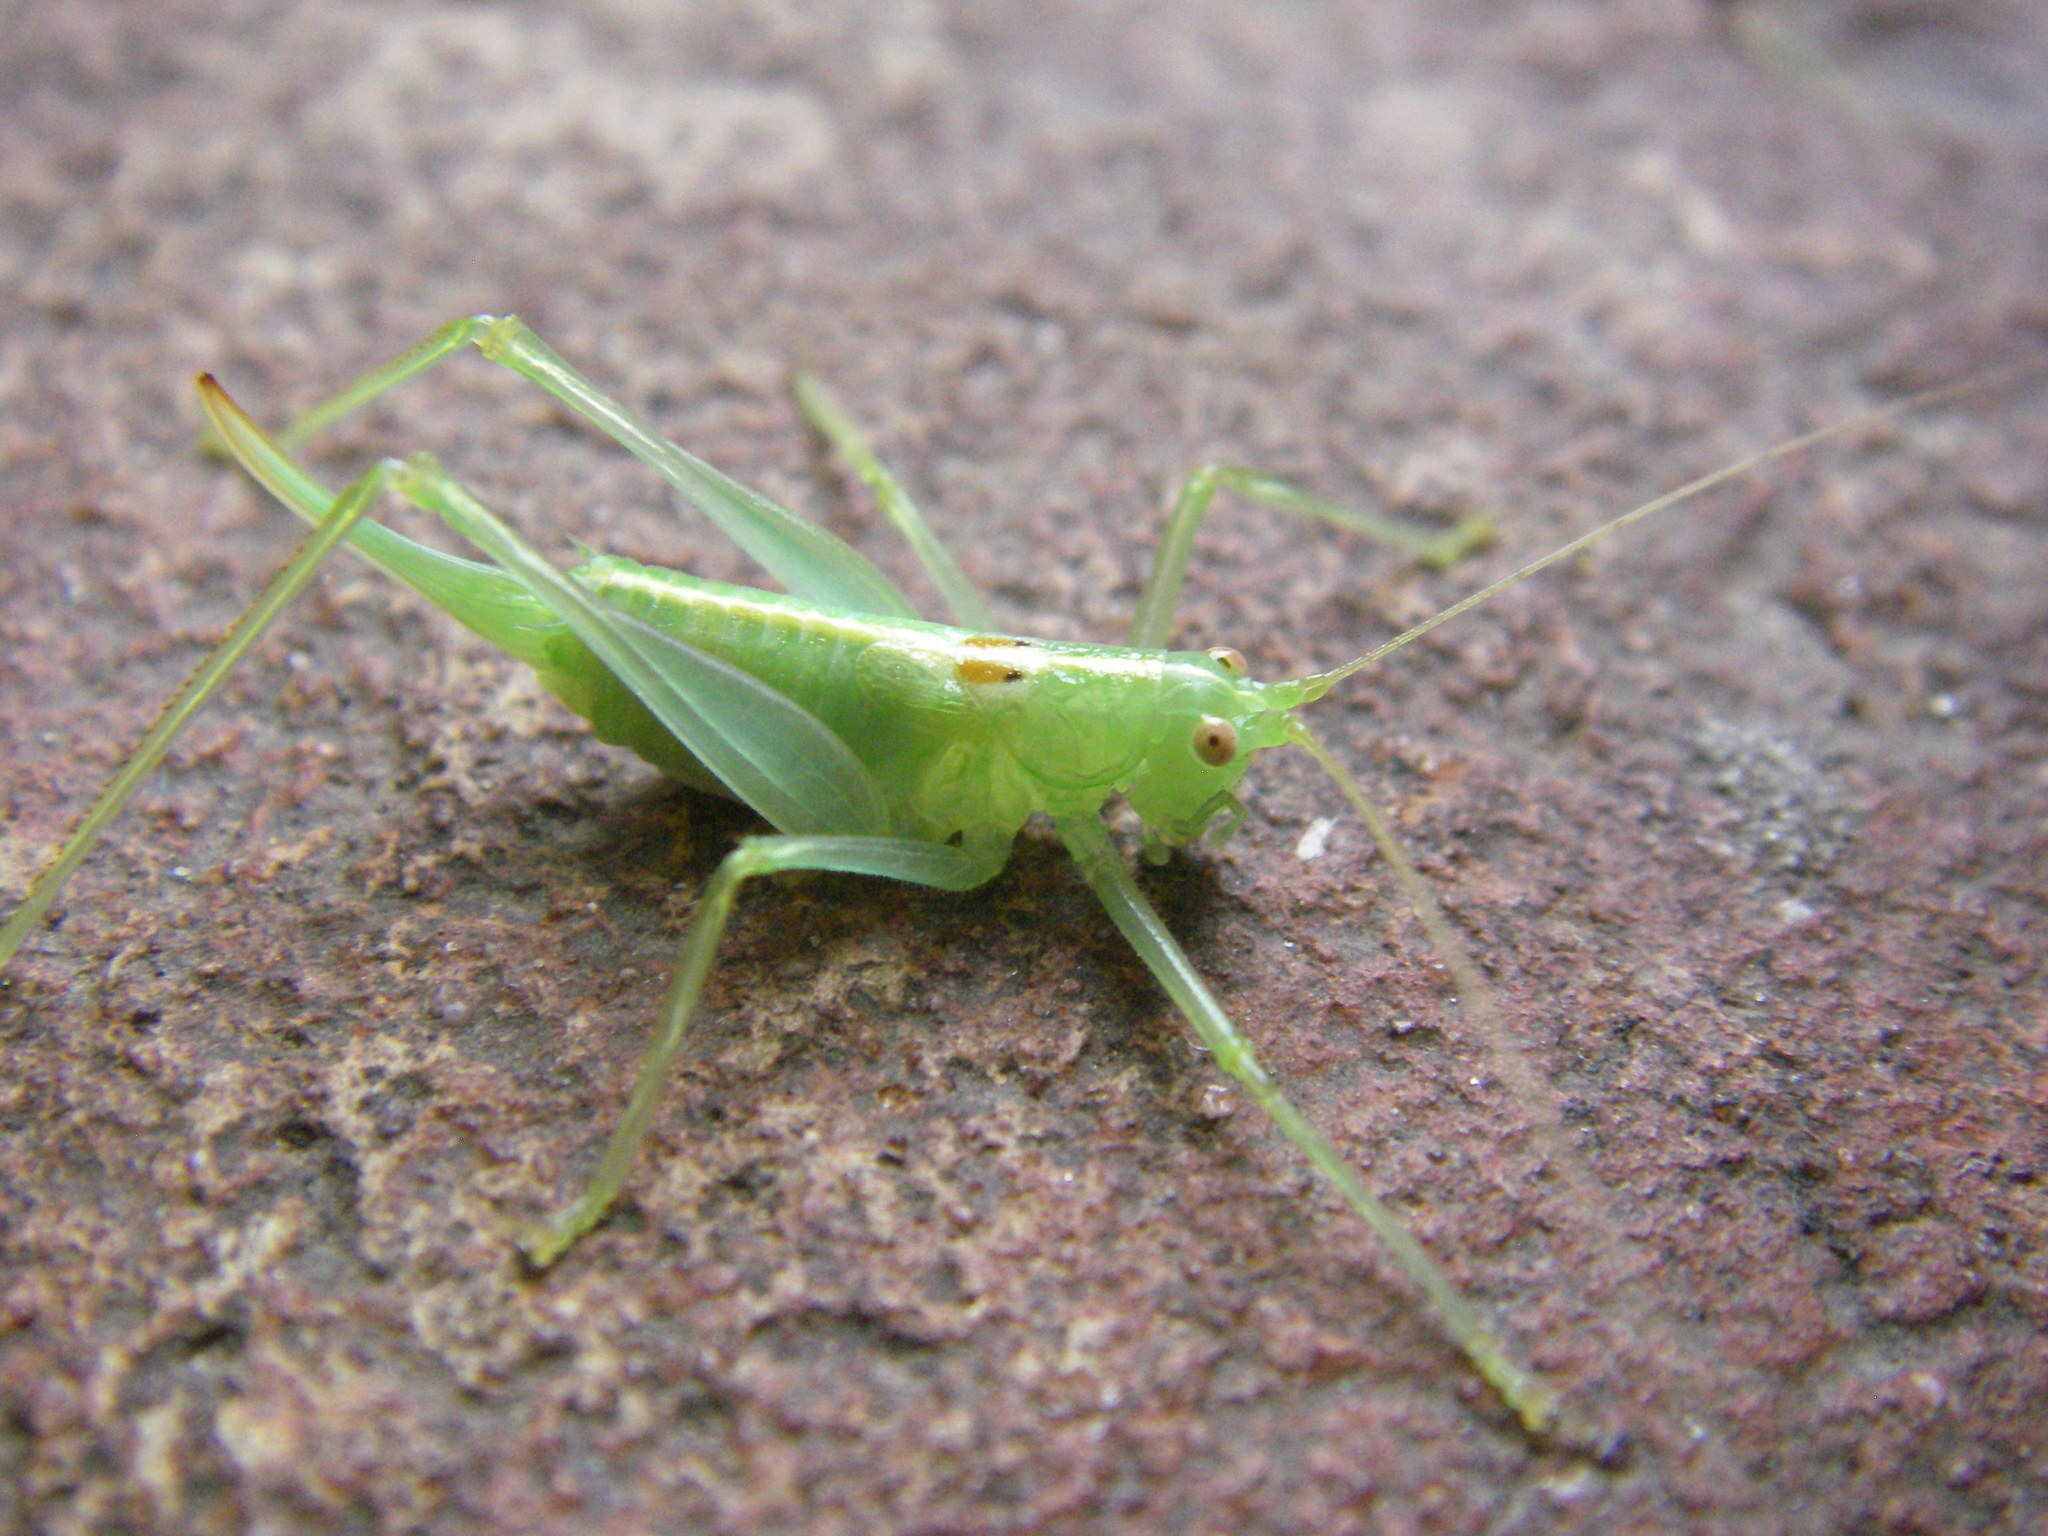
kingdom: Animalia
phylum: Arthropoda
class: Insecta
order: Orthoptera
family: Tettigoniidae
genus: Meconema
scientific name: Meconema meridionale
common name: Southern oak bush-cricket
